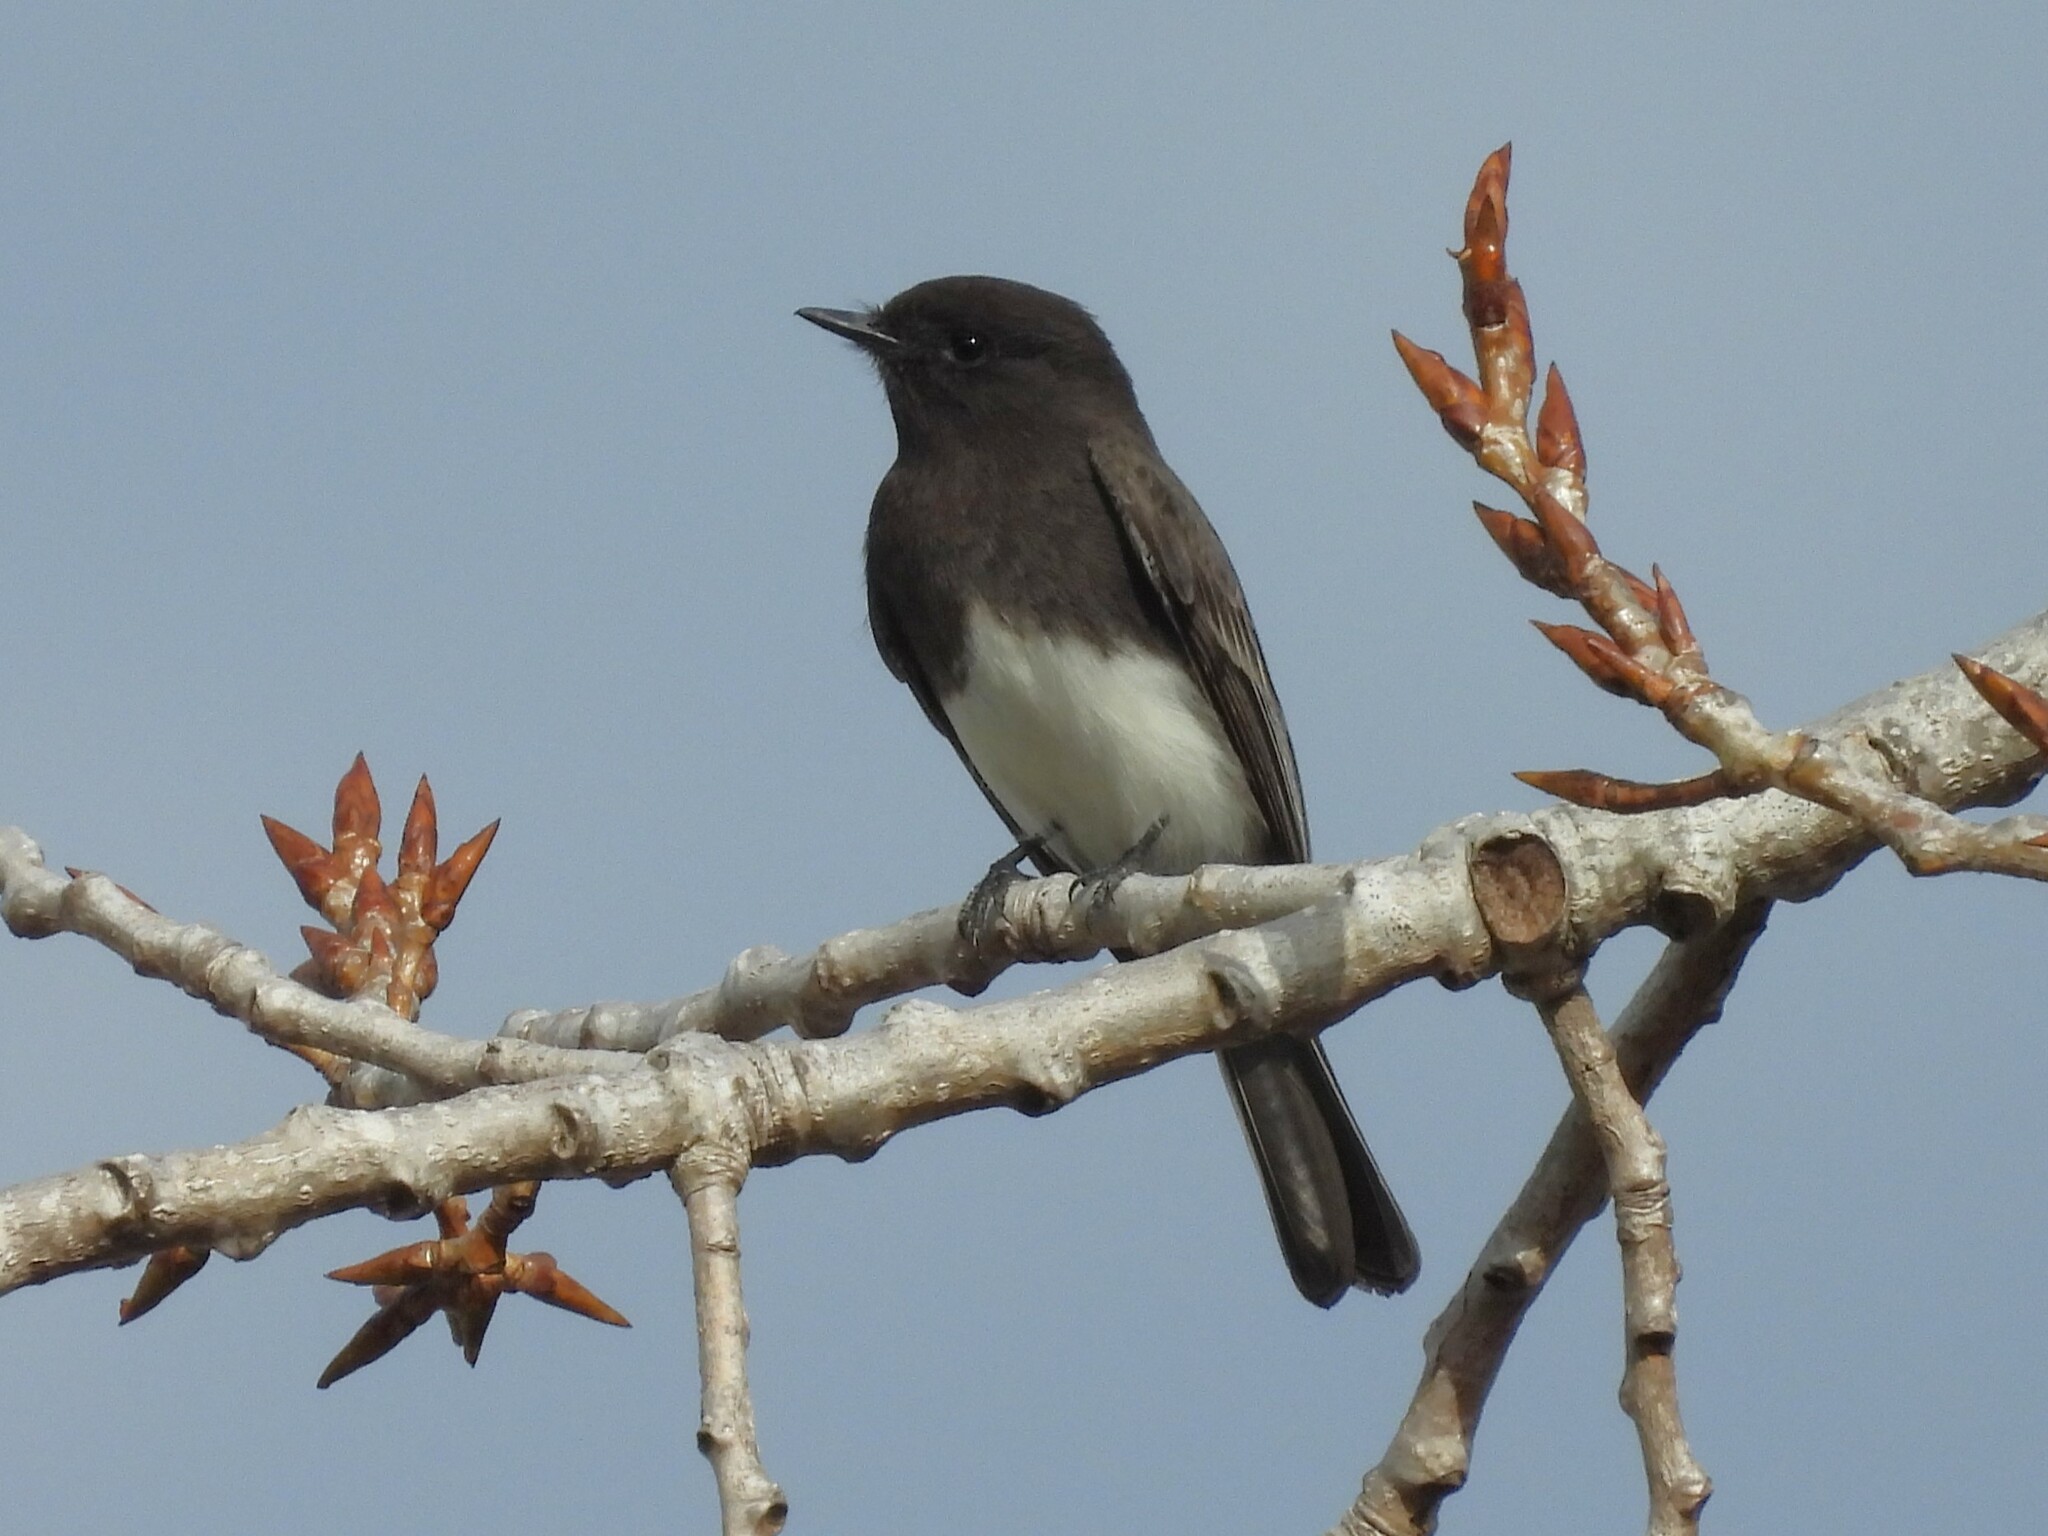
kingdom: Animalia
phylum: Chordata
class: Aves
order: Passeriformes
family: Tyrannidae
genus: Sayornis
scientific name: Sayornis nigricans
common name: Black phoebe
